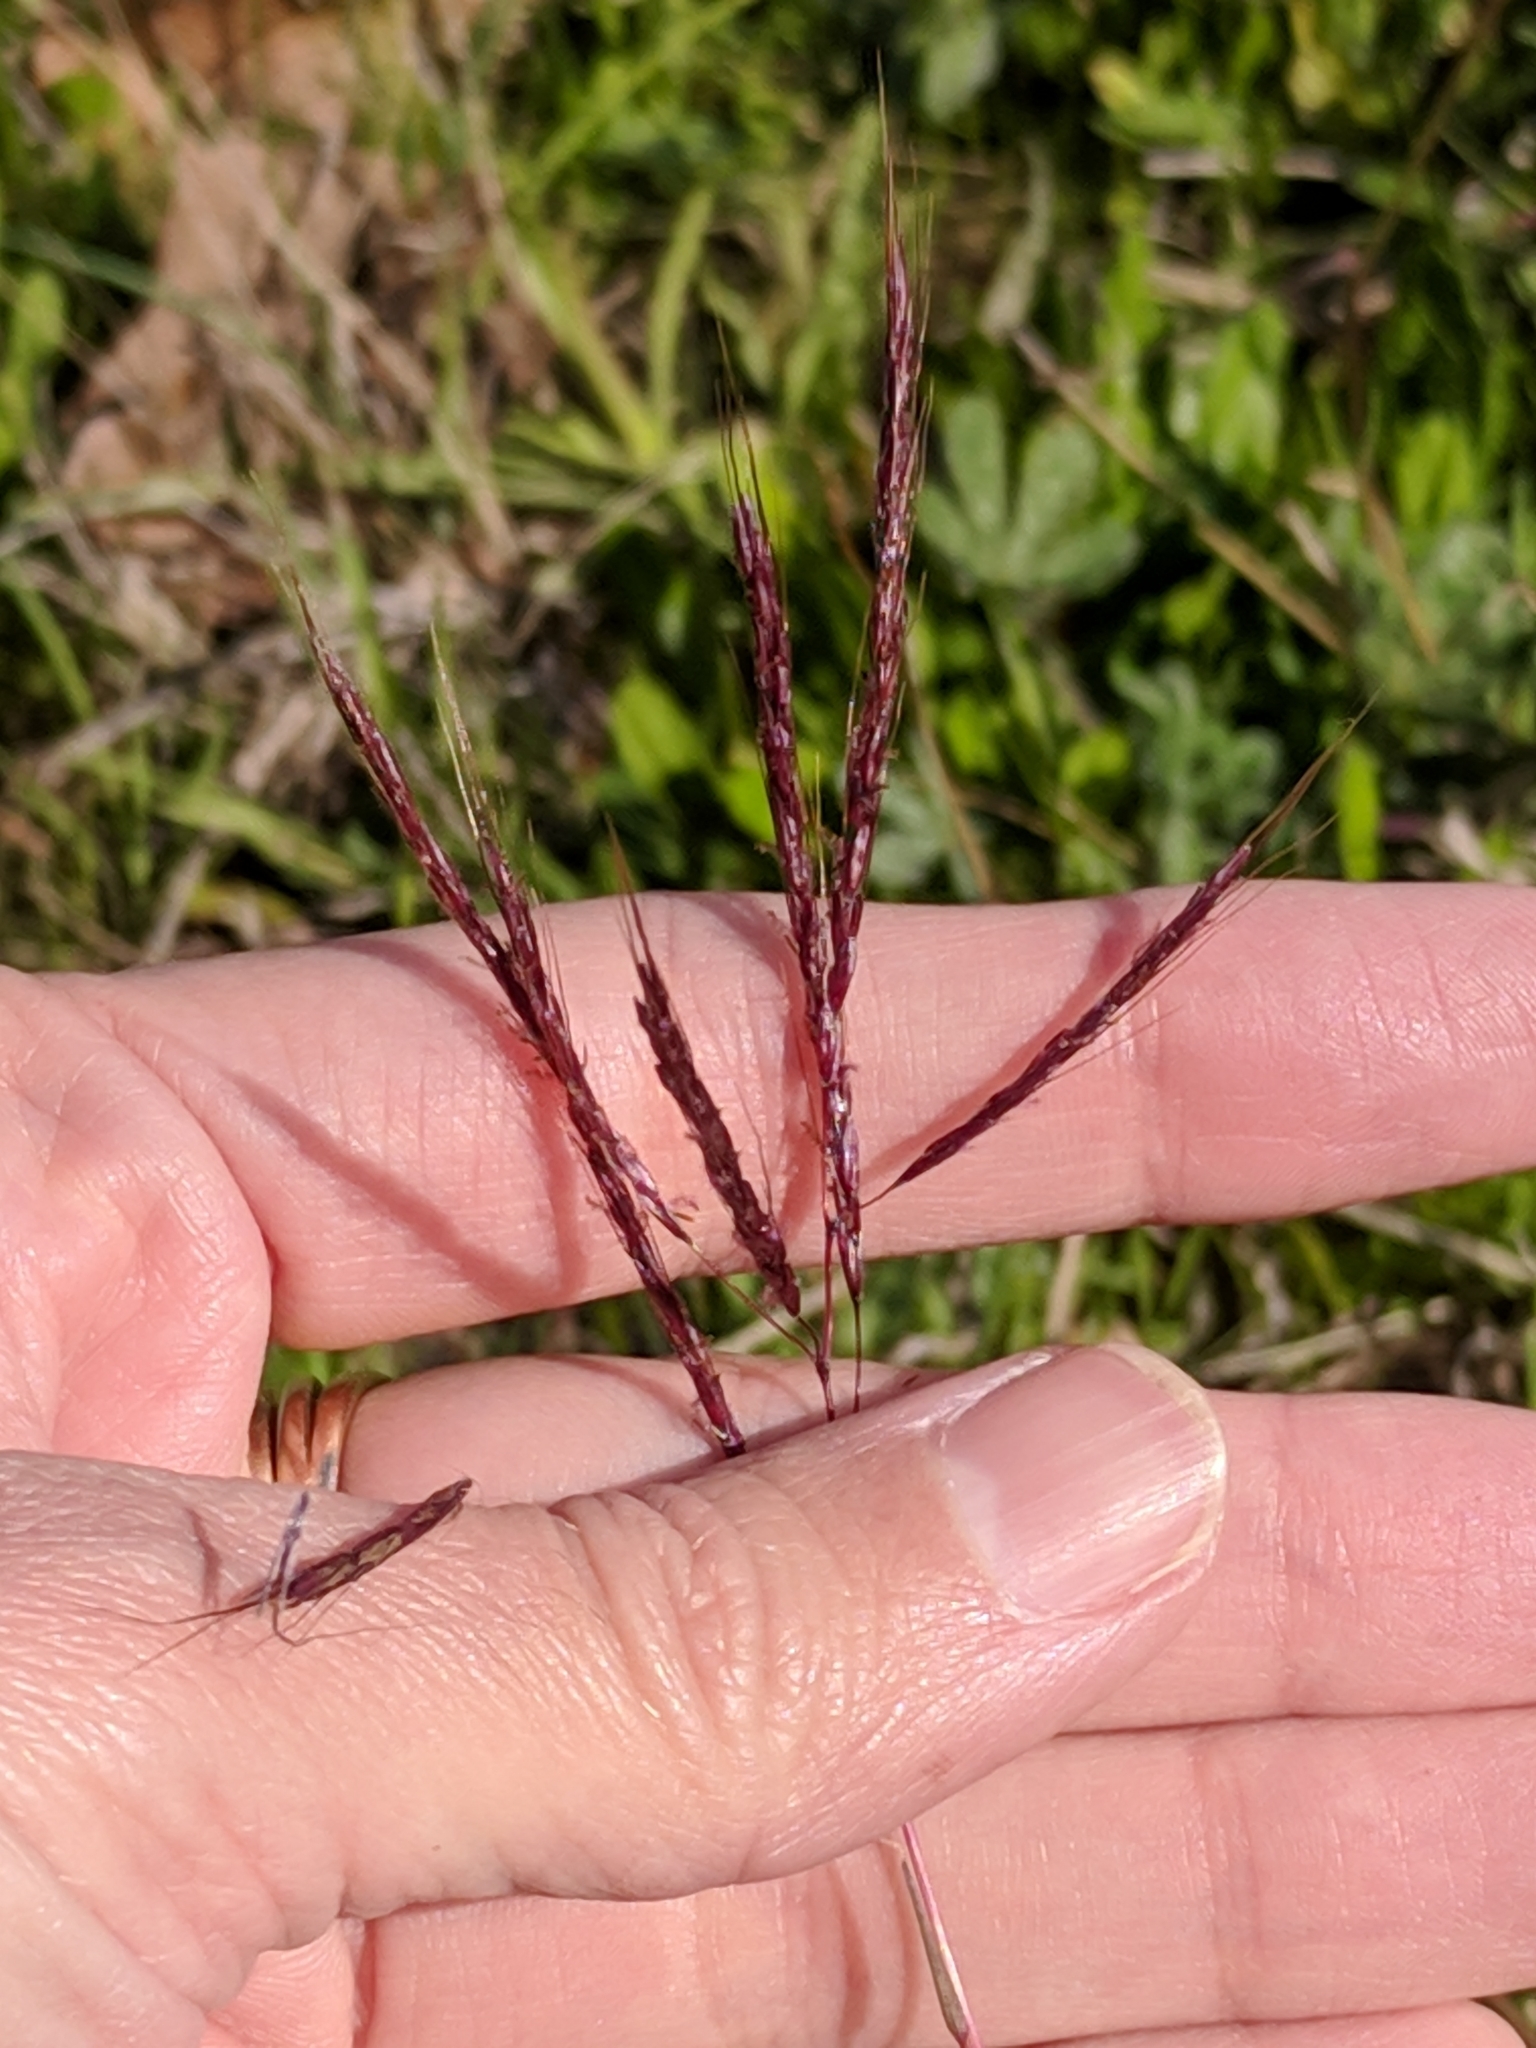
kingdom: Plantae
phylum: Tracheophyta
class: Liliopsida
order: Poales
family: Poaceae
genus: Bothriochloa
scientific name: Bothriochloa ischaemum
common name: Yellow bluestem
